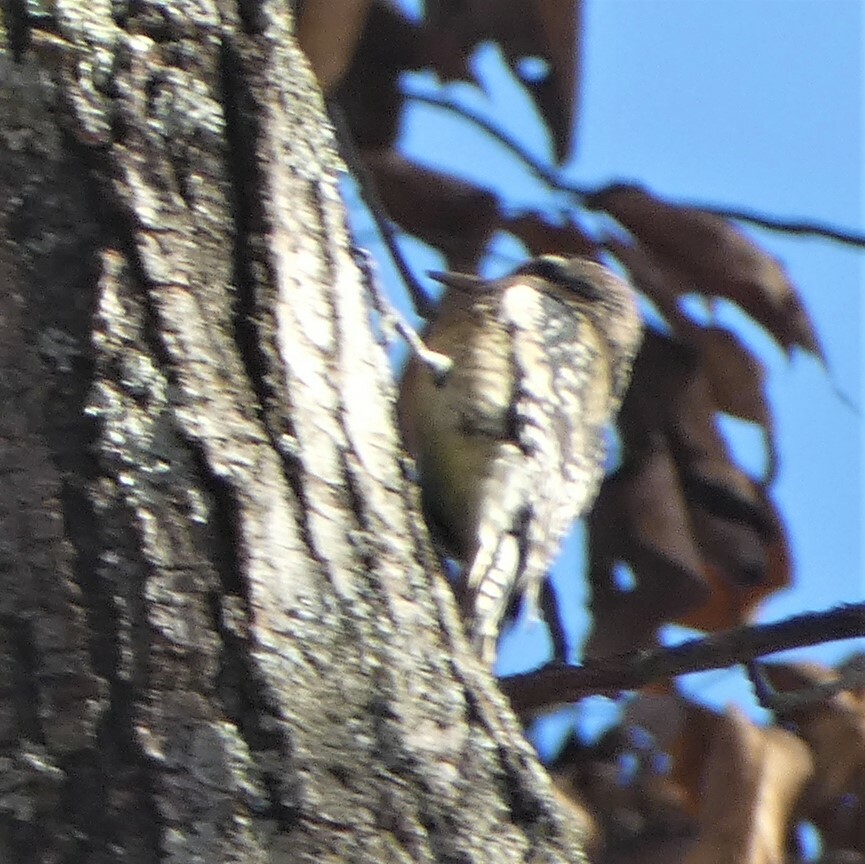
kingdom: Animalia
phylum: Chordata
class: Aves
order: Piciformes
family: Picidae
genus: Sphyrapicus
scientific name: Sphyrapicus varius
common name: Yellow-bellied sapsucker
